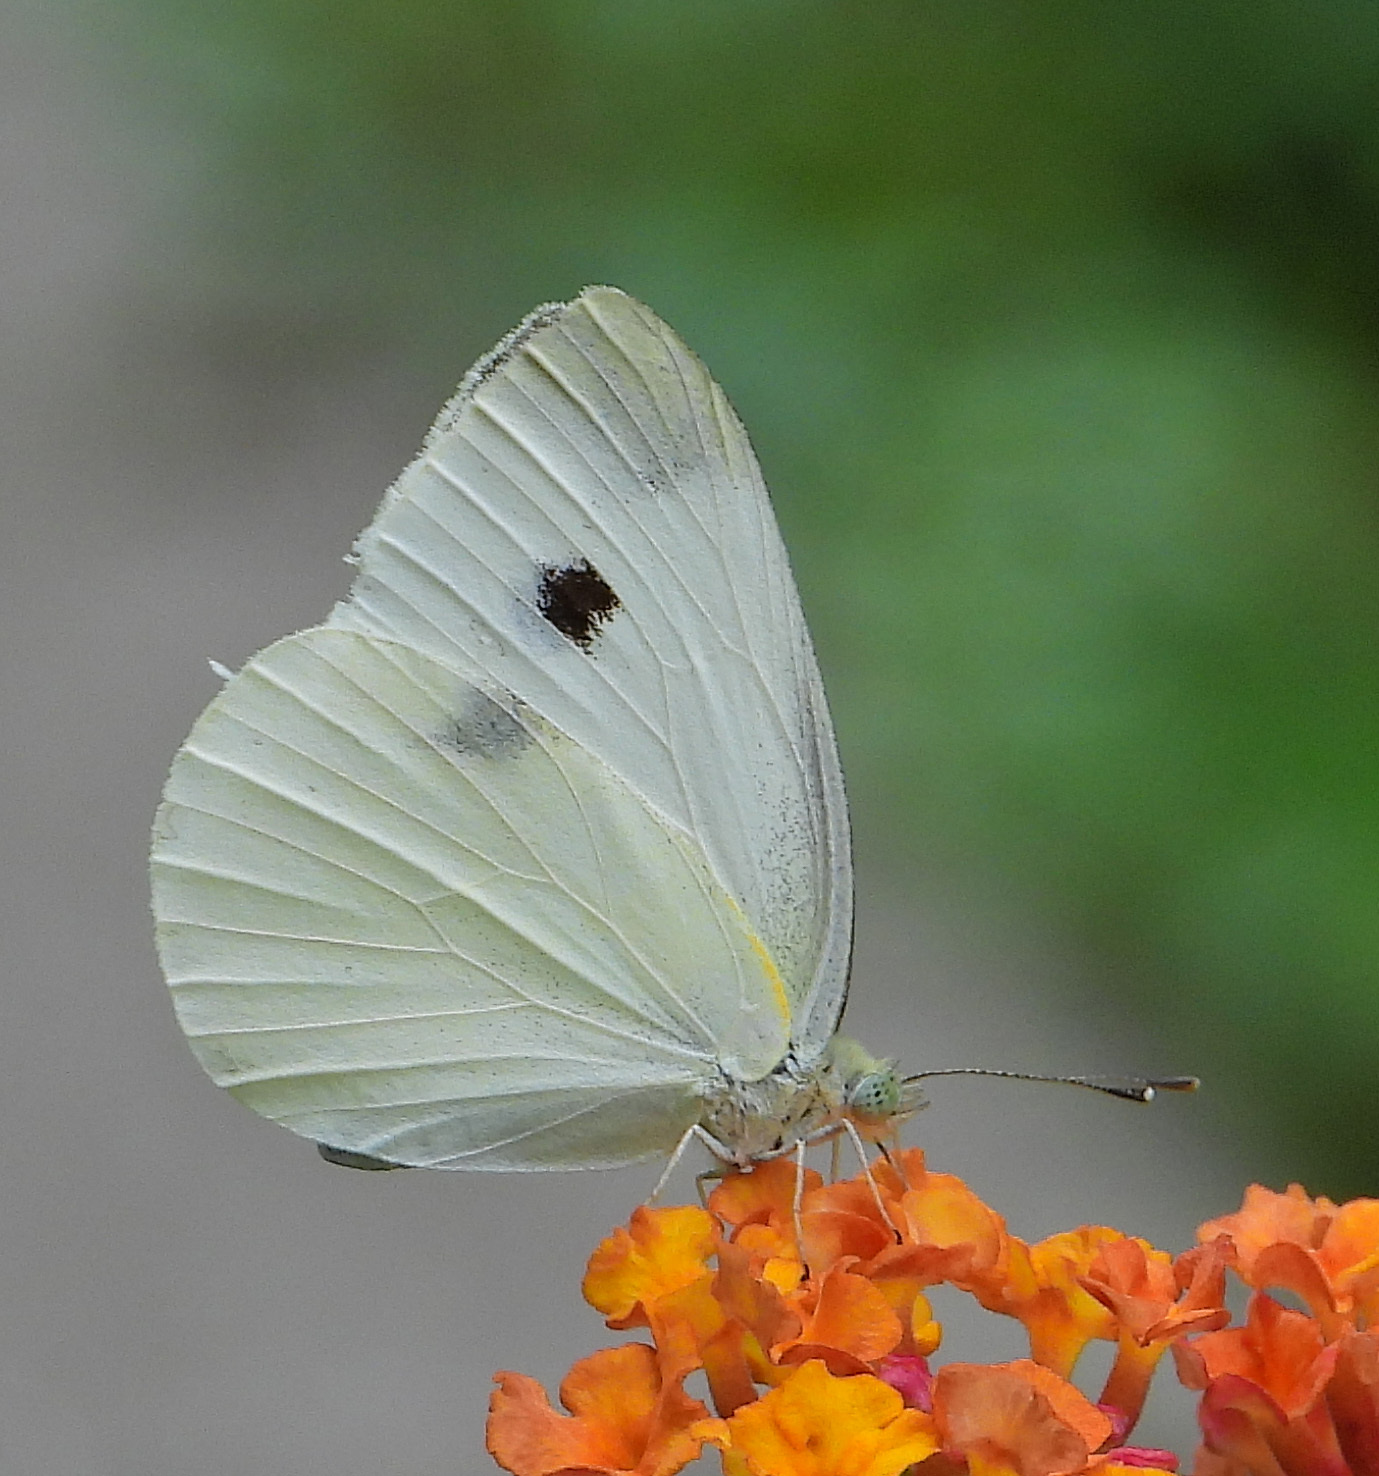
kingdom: Animalia
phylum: Arthropoda
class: Insecta
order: Lepidoptera
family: Pieridae
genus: Pieris
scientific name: Pieris rapae
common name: Small white
